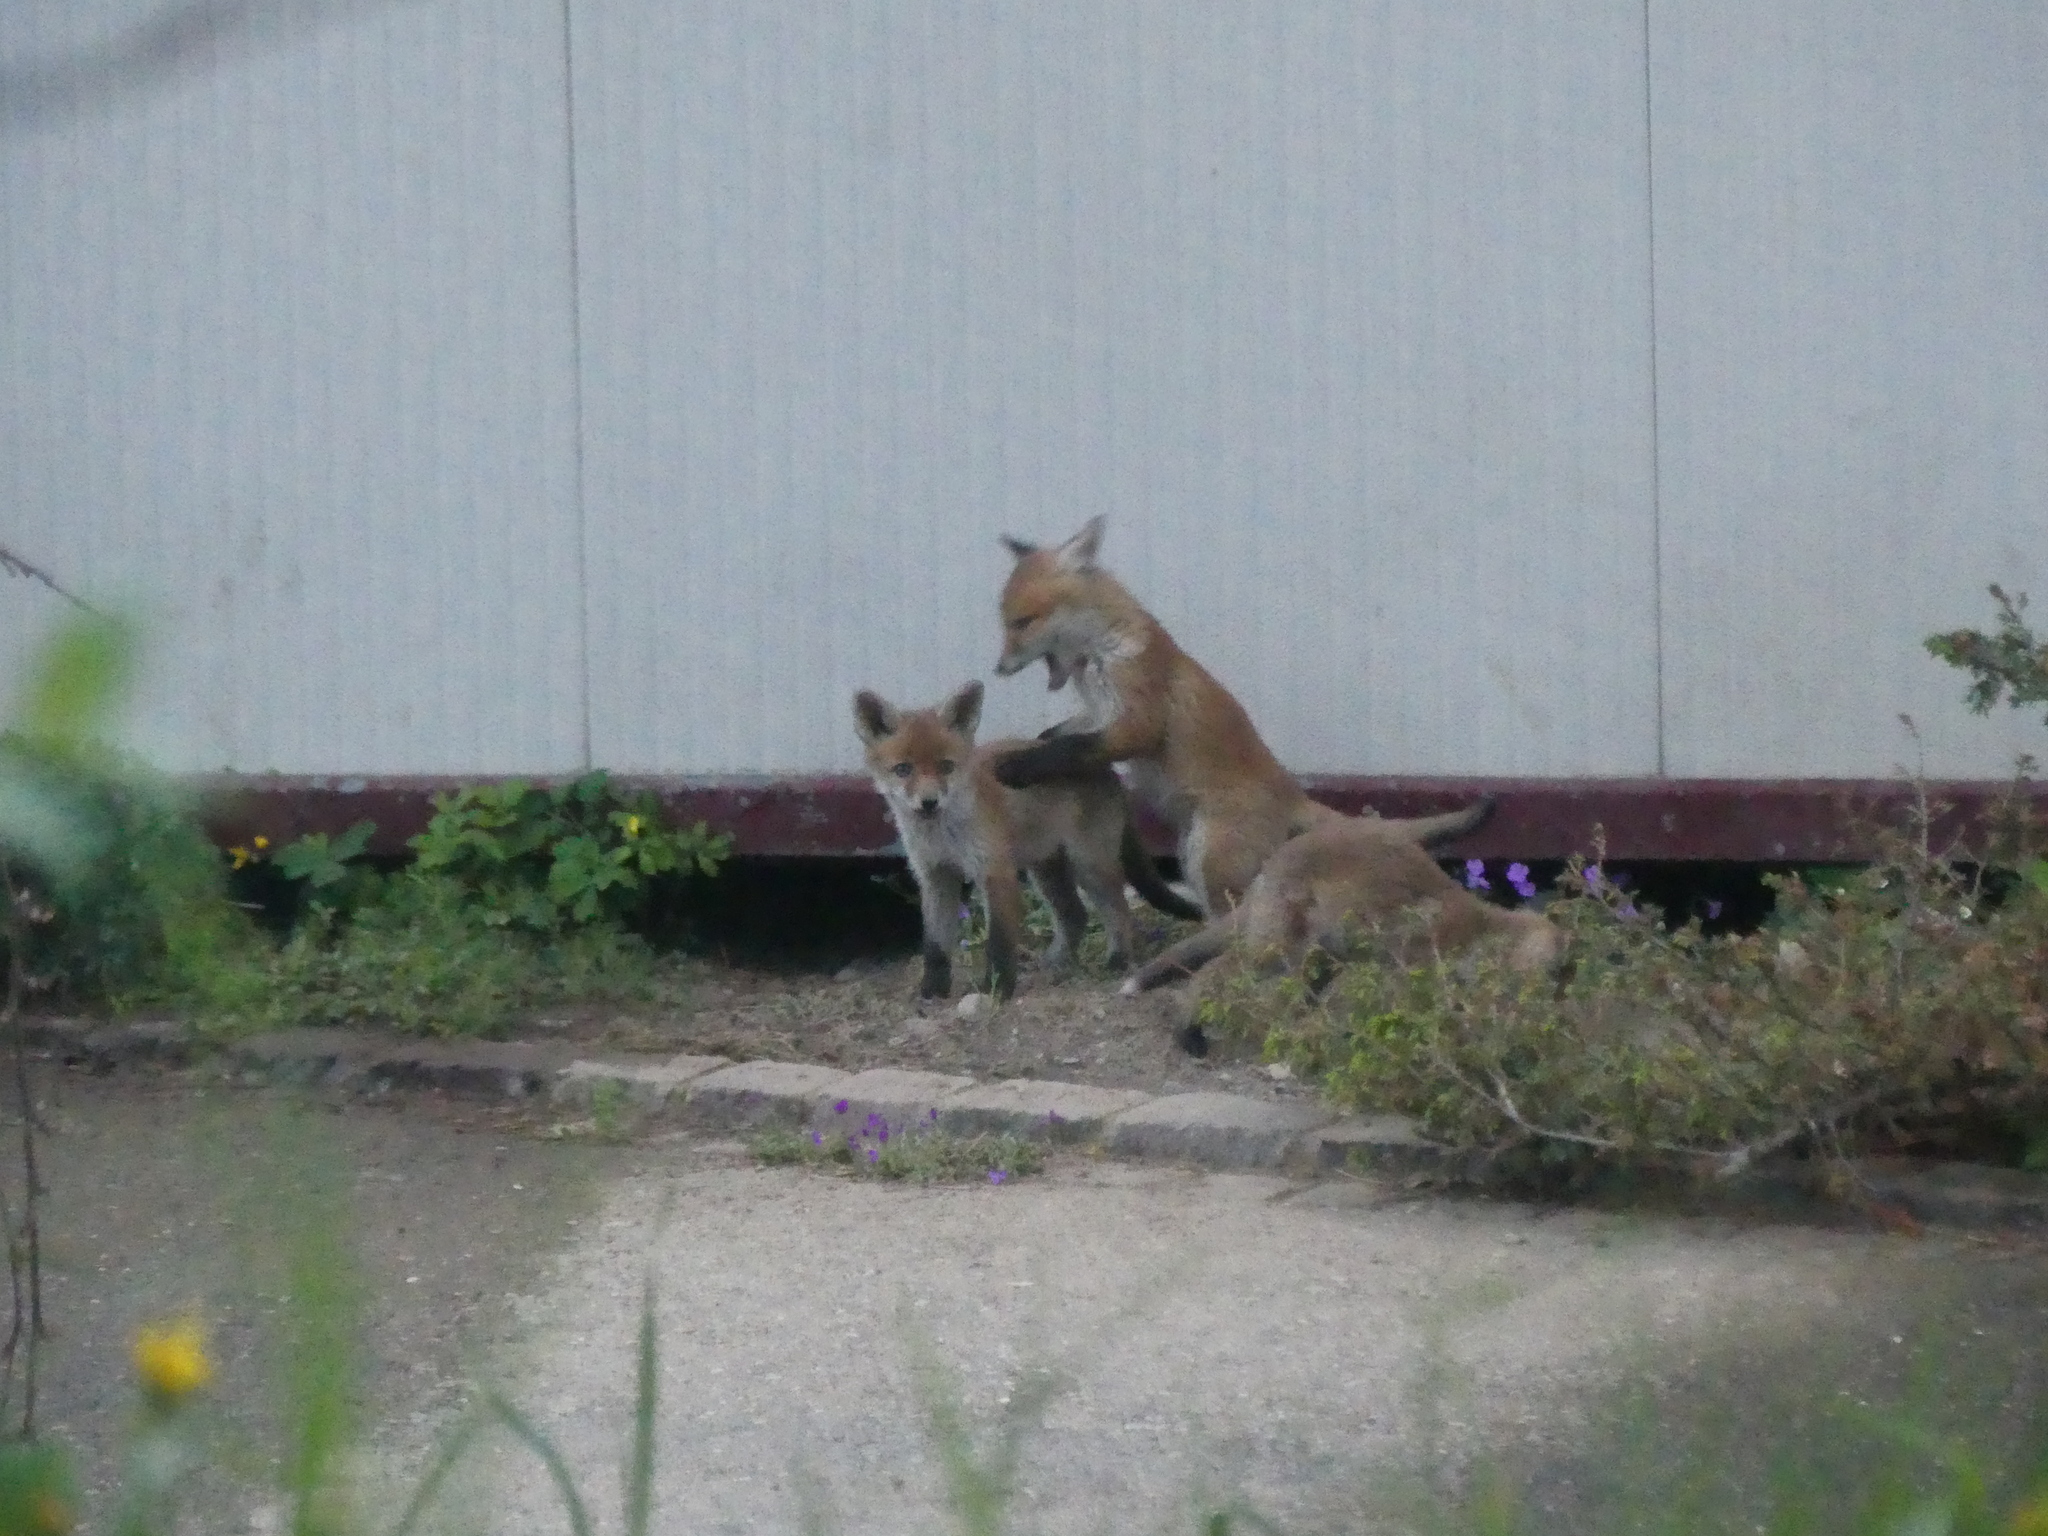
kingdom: Animalia
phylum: Chordata
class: Mammalia
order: Carnivora
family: Canidae
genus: Vulpes
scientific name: Vulpes vulpes
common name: Red fox
